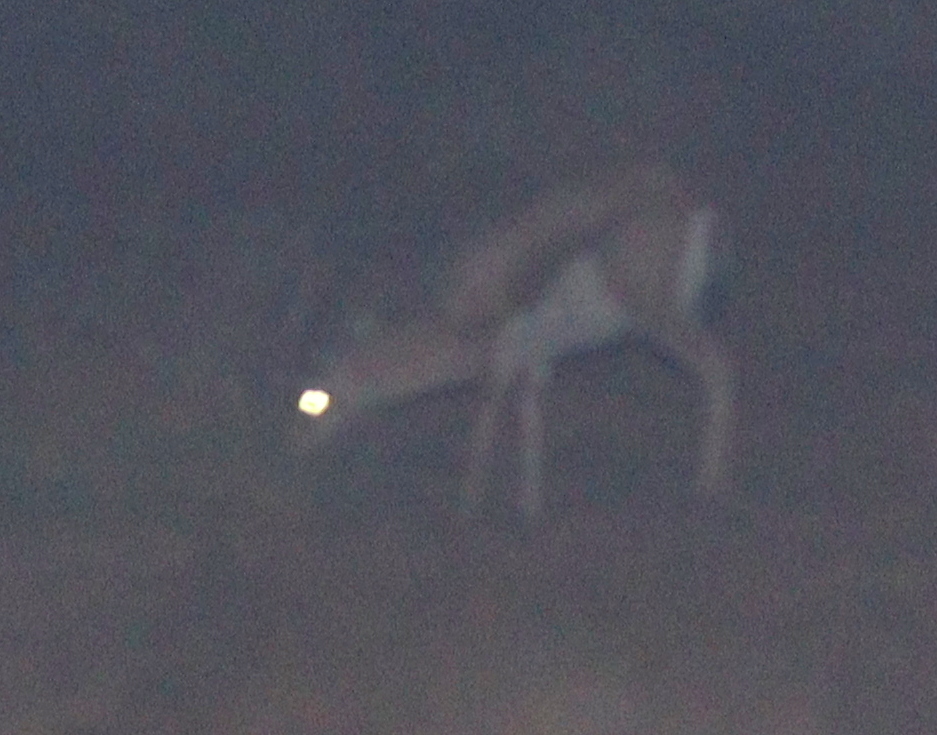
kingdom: Animalia
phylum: Chordata
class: Mammalia
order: Artiodactyla
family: Bovidae
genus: Gazella
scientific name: Gazella dorcas
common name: Dorcas gazelle
